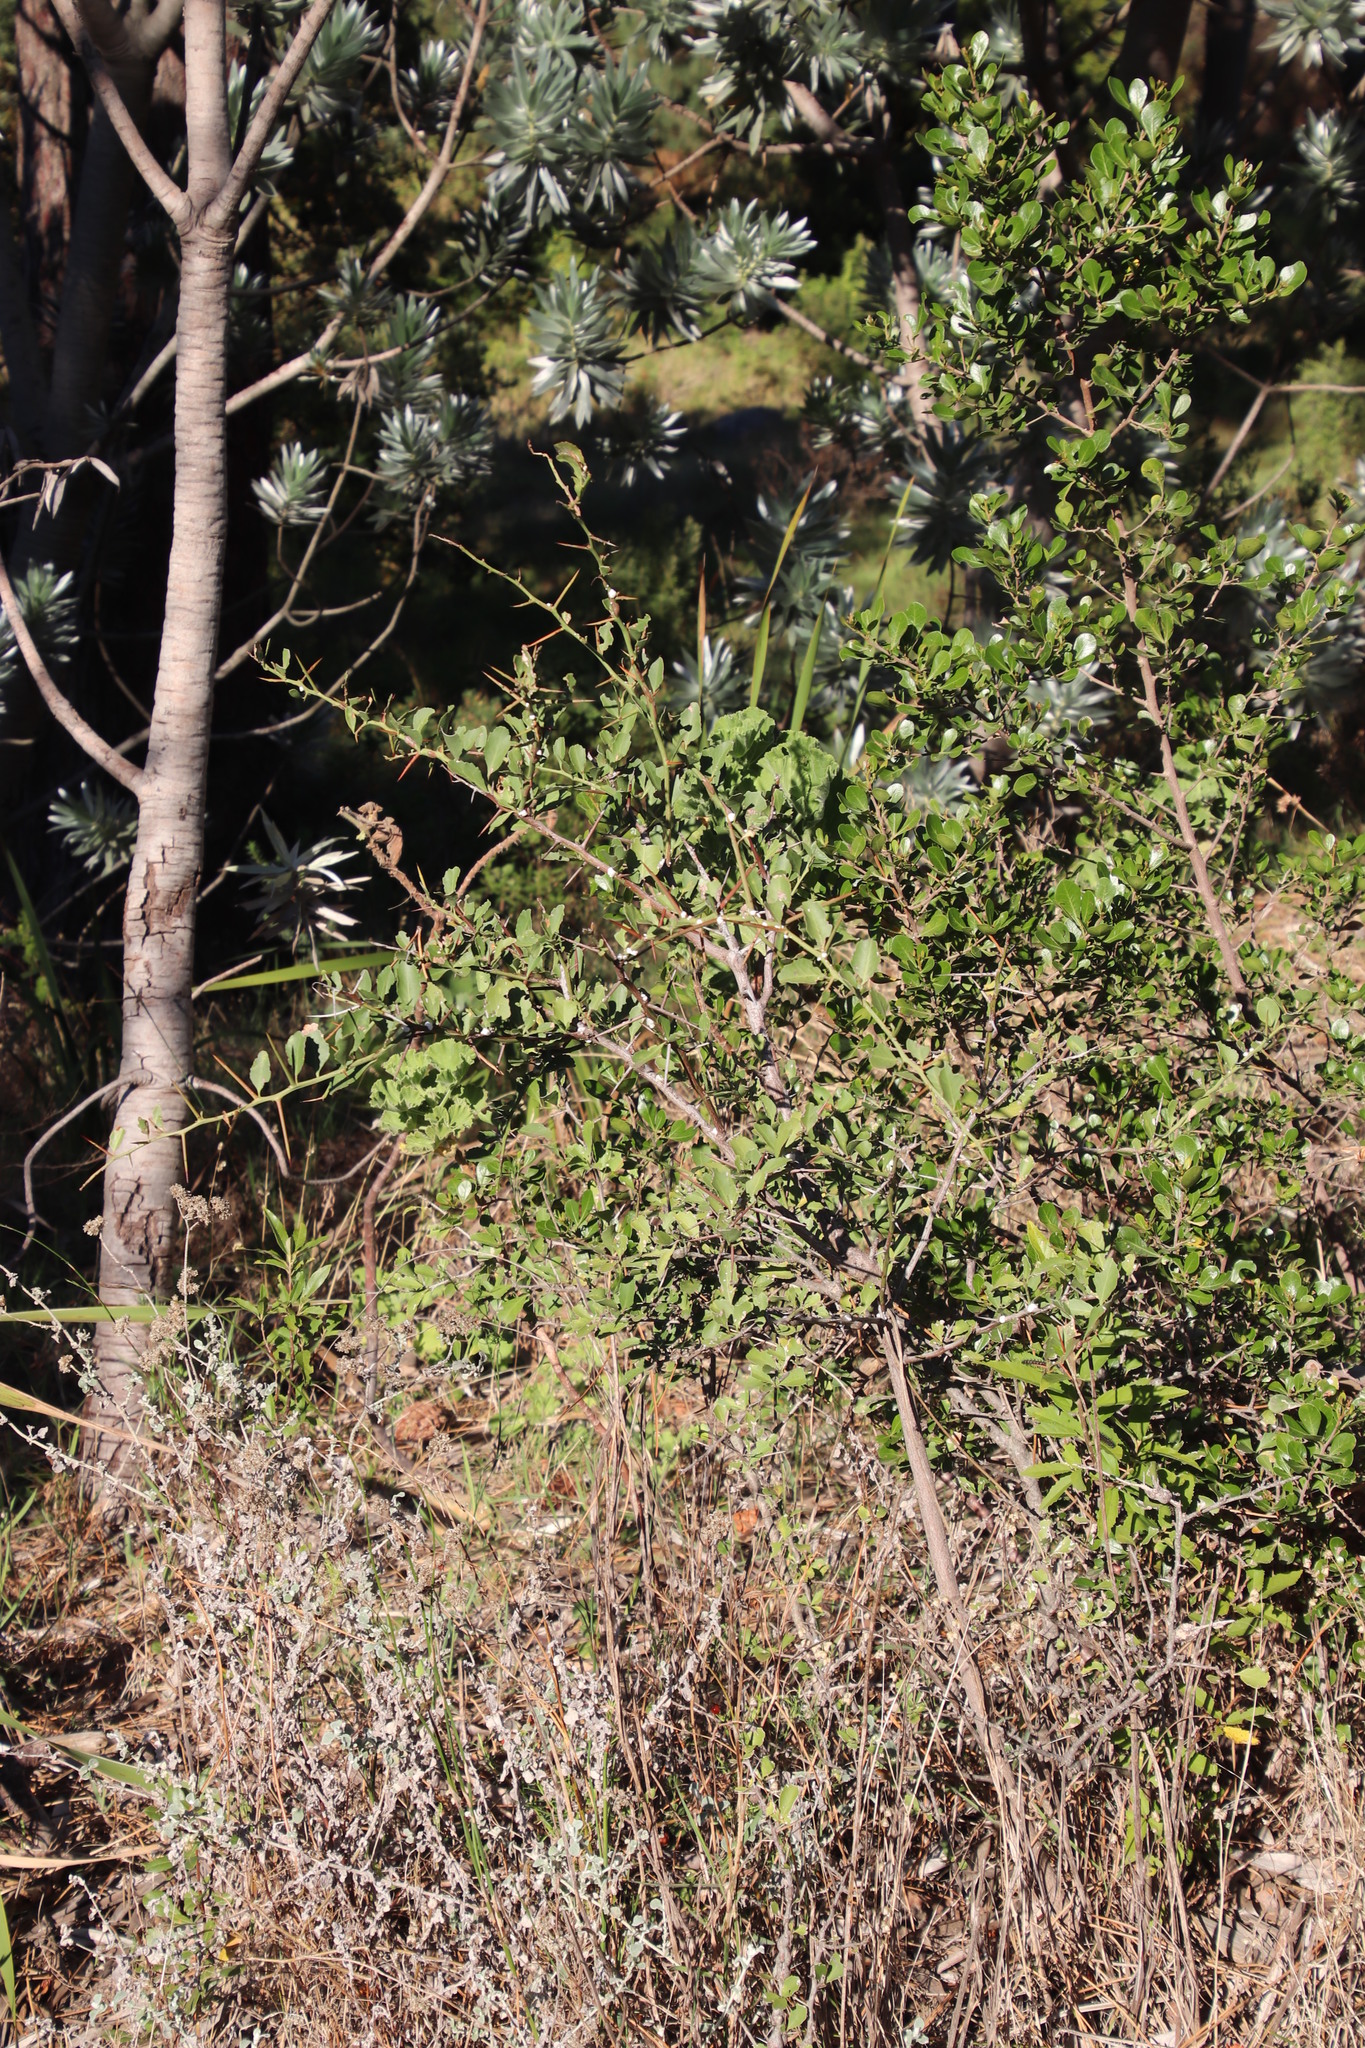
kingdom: Plantae
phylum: Tracheophyta
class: Magnoliopsida
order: Celastrales
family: Celastraceae
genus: Gymnosporia
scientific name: Gymnosporia buxifolia
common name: Common spike-thorn
